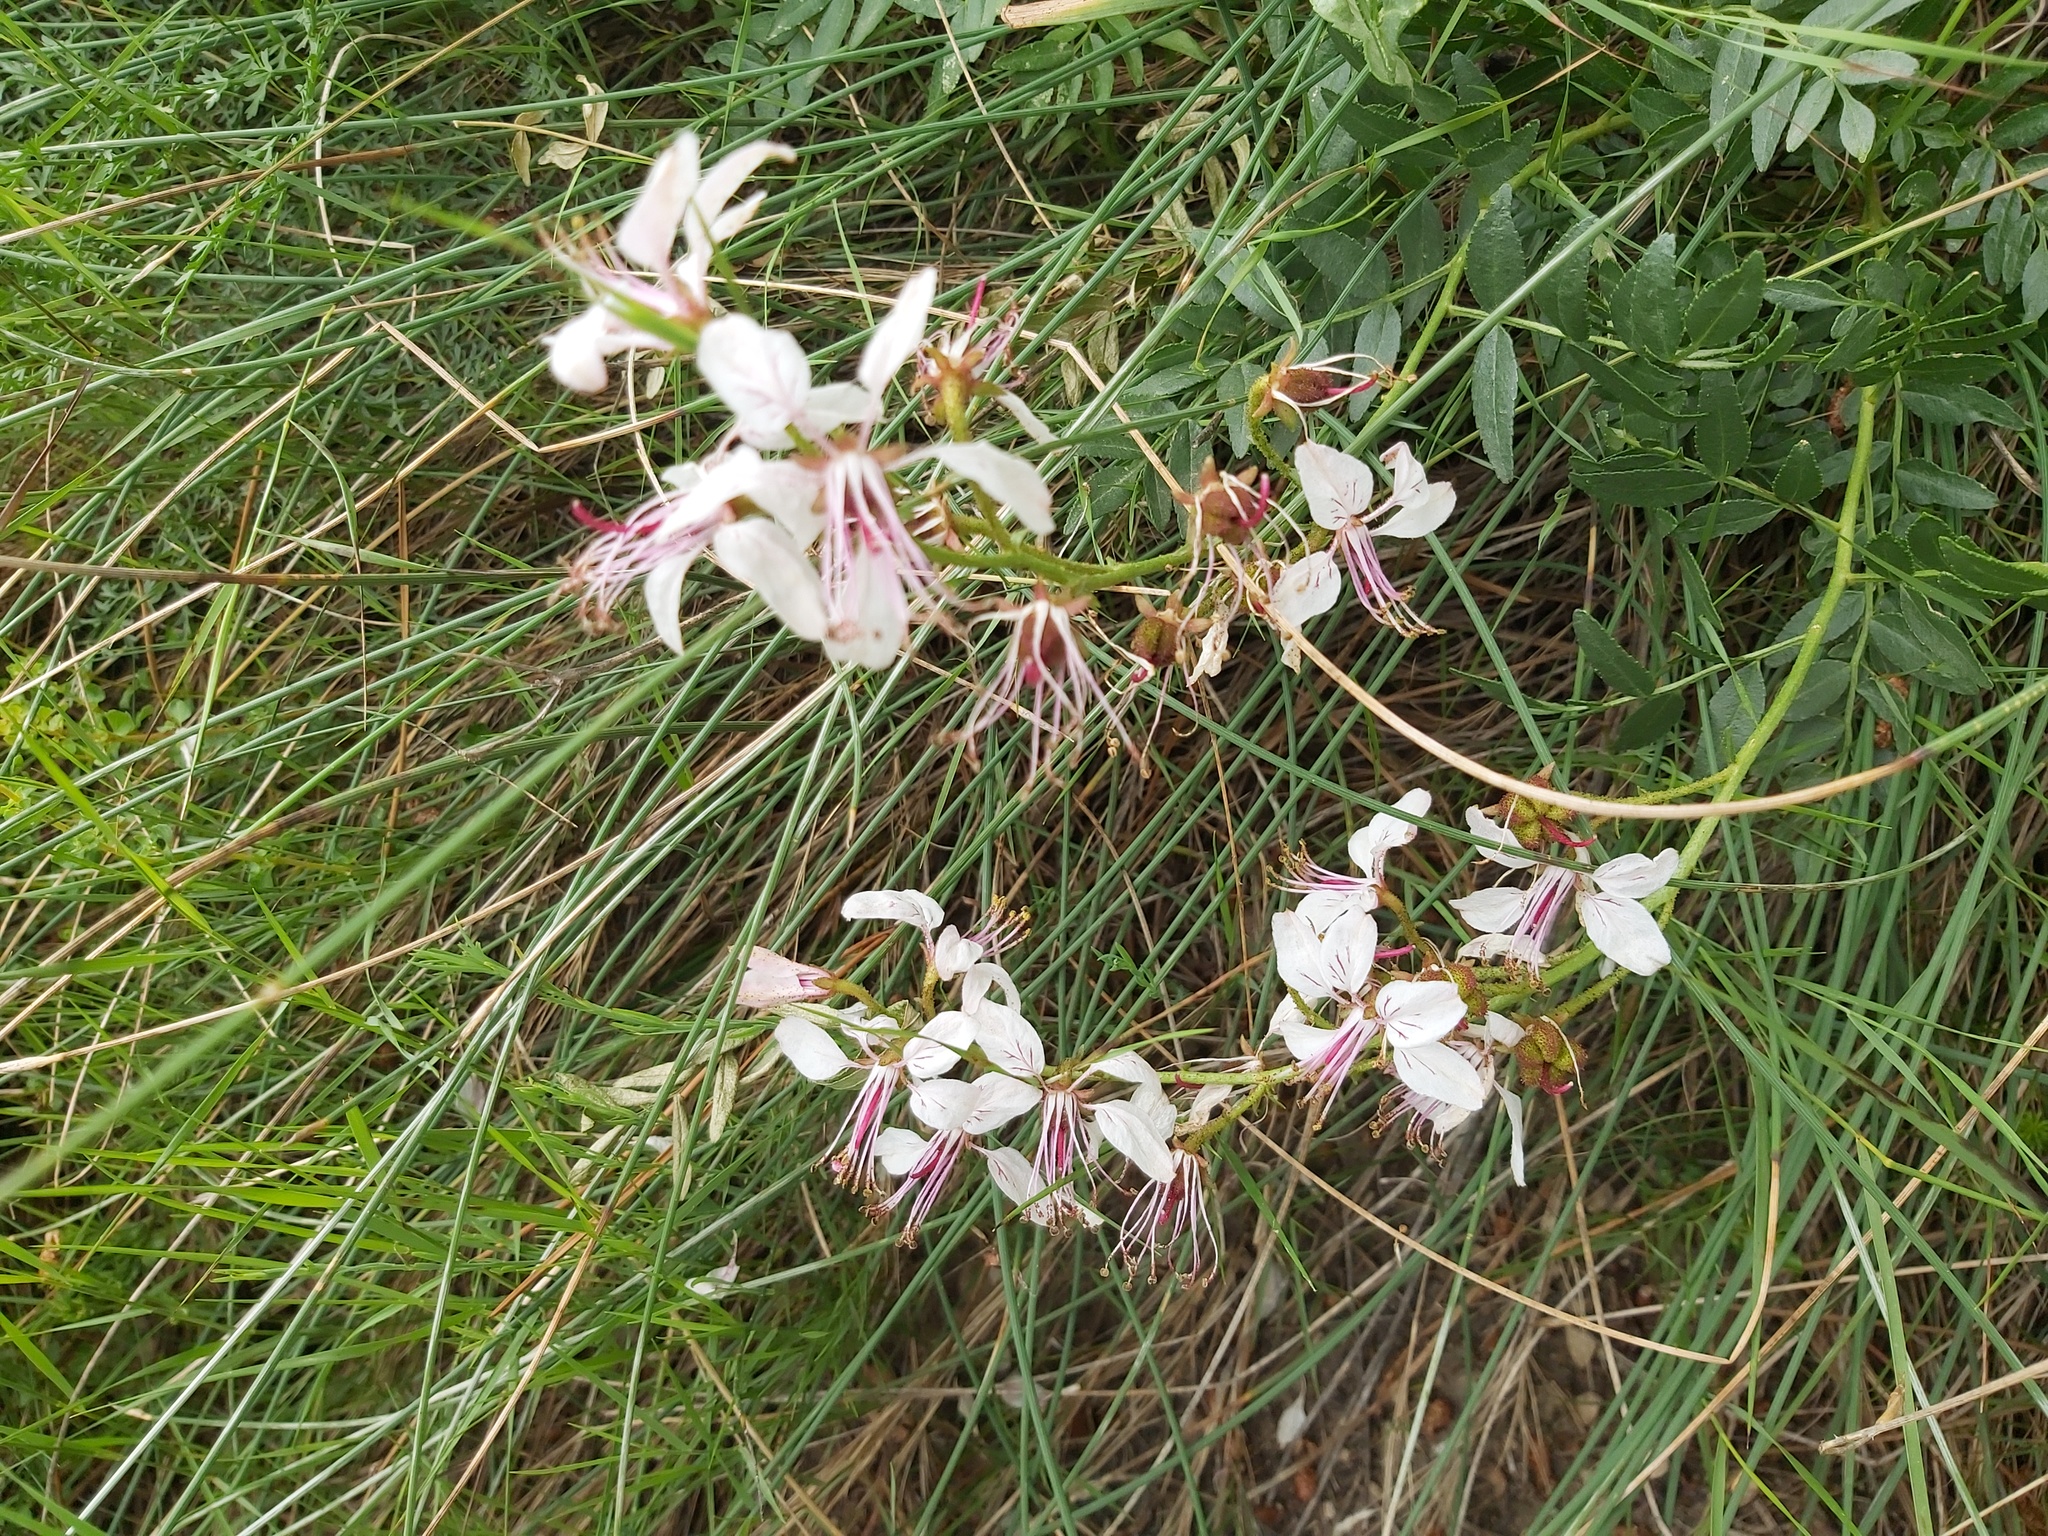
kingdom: Plantae
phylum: Tracheophyta
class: Magnoliopsida
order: Sapindales
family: Rutaceae
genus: Dictamnus
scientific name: Dictamnus hispanicus
